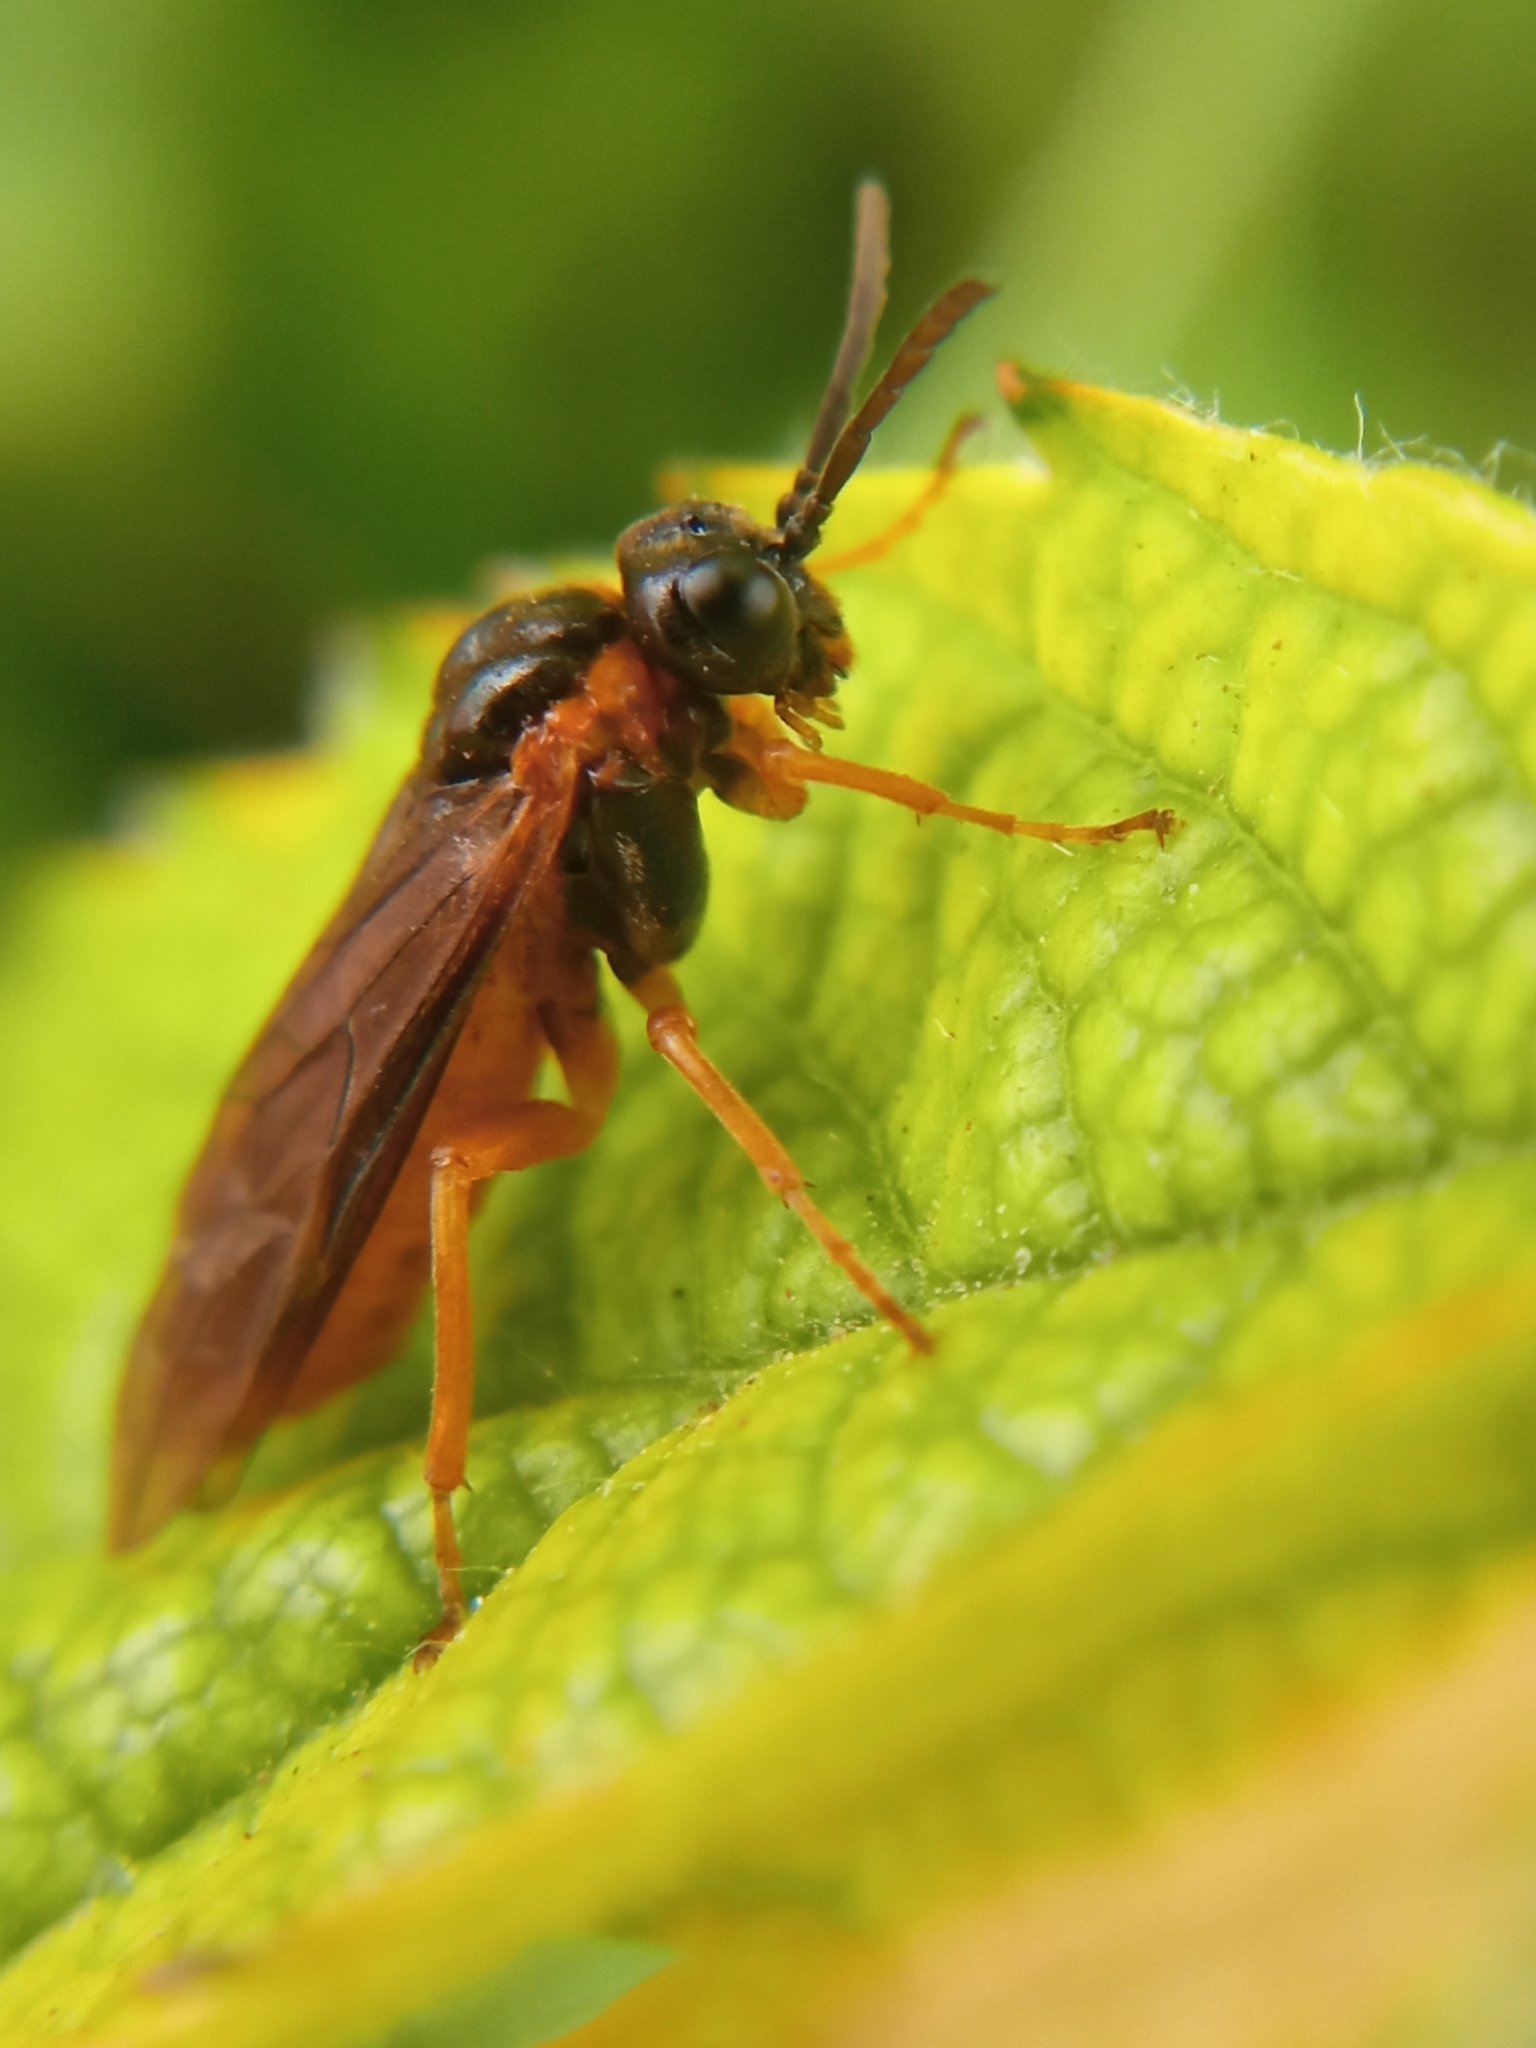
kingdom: Animalia
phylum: Arthropoda
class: Insecta
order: Hymenoptera
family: Tenthredinidae
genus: Monostegia
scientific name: Monostegia abdominalis
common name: Tenthredid wasp
